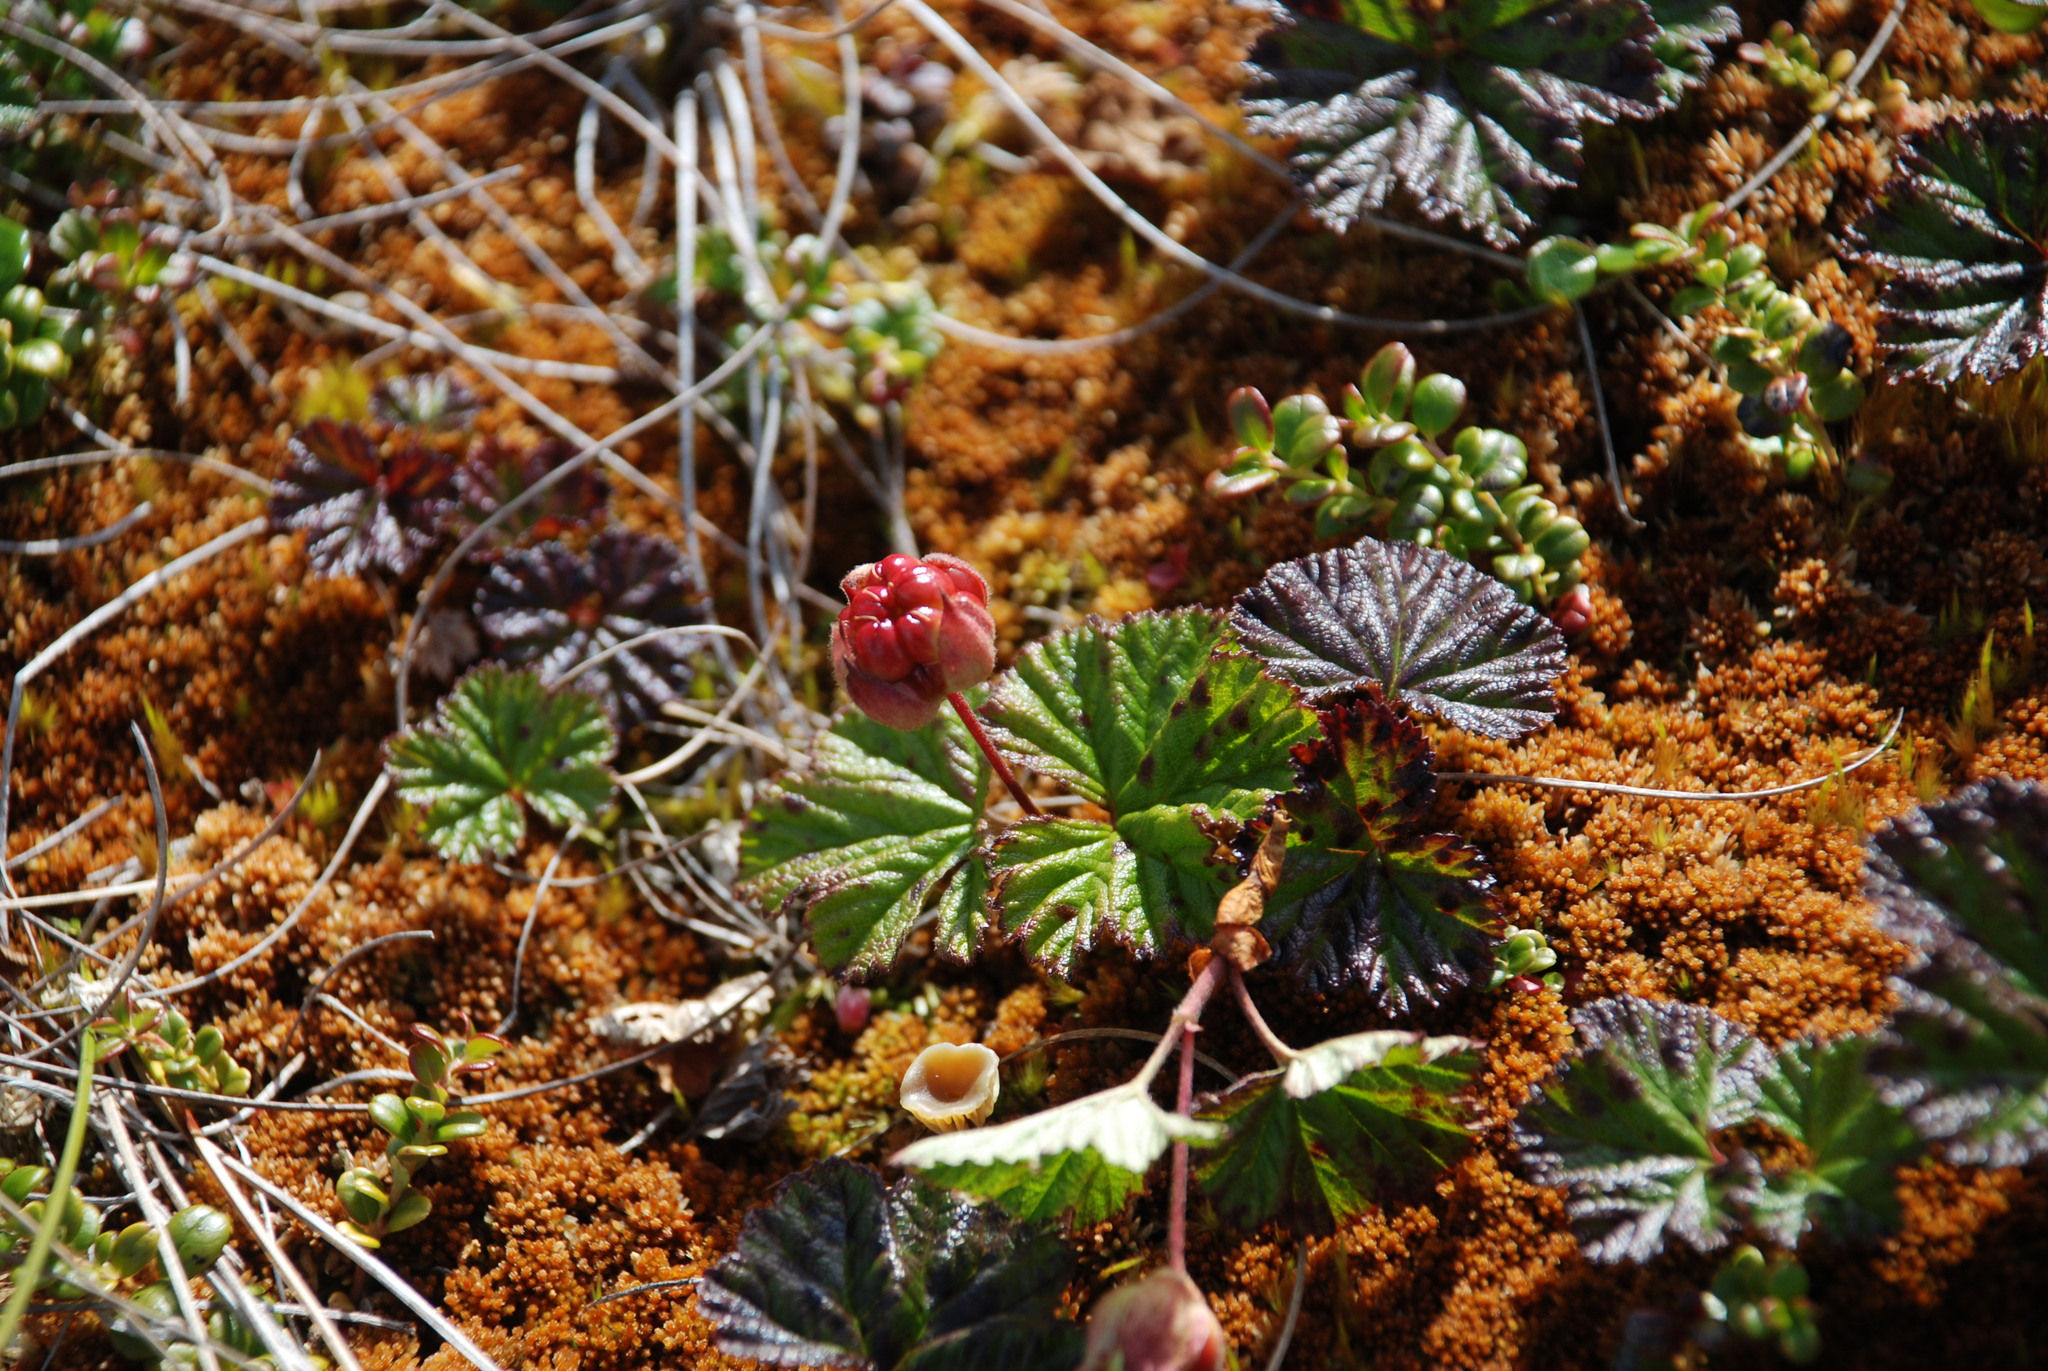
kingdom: Plantae
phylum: Tracheophyta
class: Magnoliopsida
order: Rosales
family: Rosaceae
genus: Rubus
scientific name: Rubus chamaemorus
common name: Cloudberry
